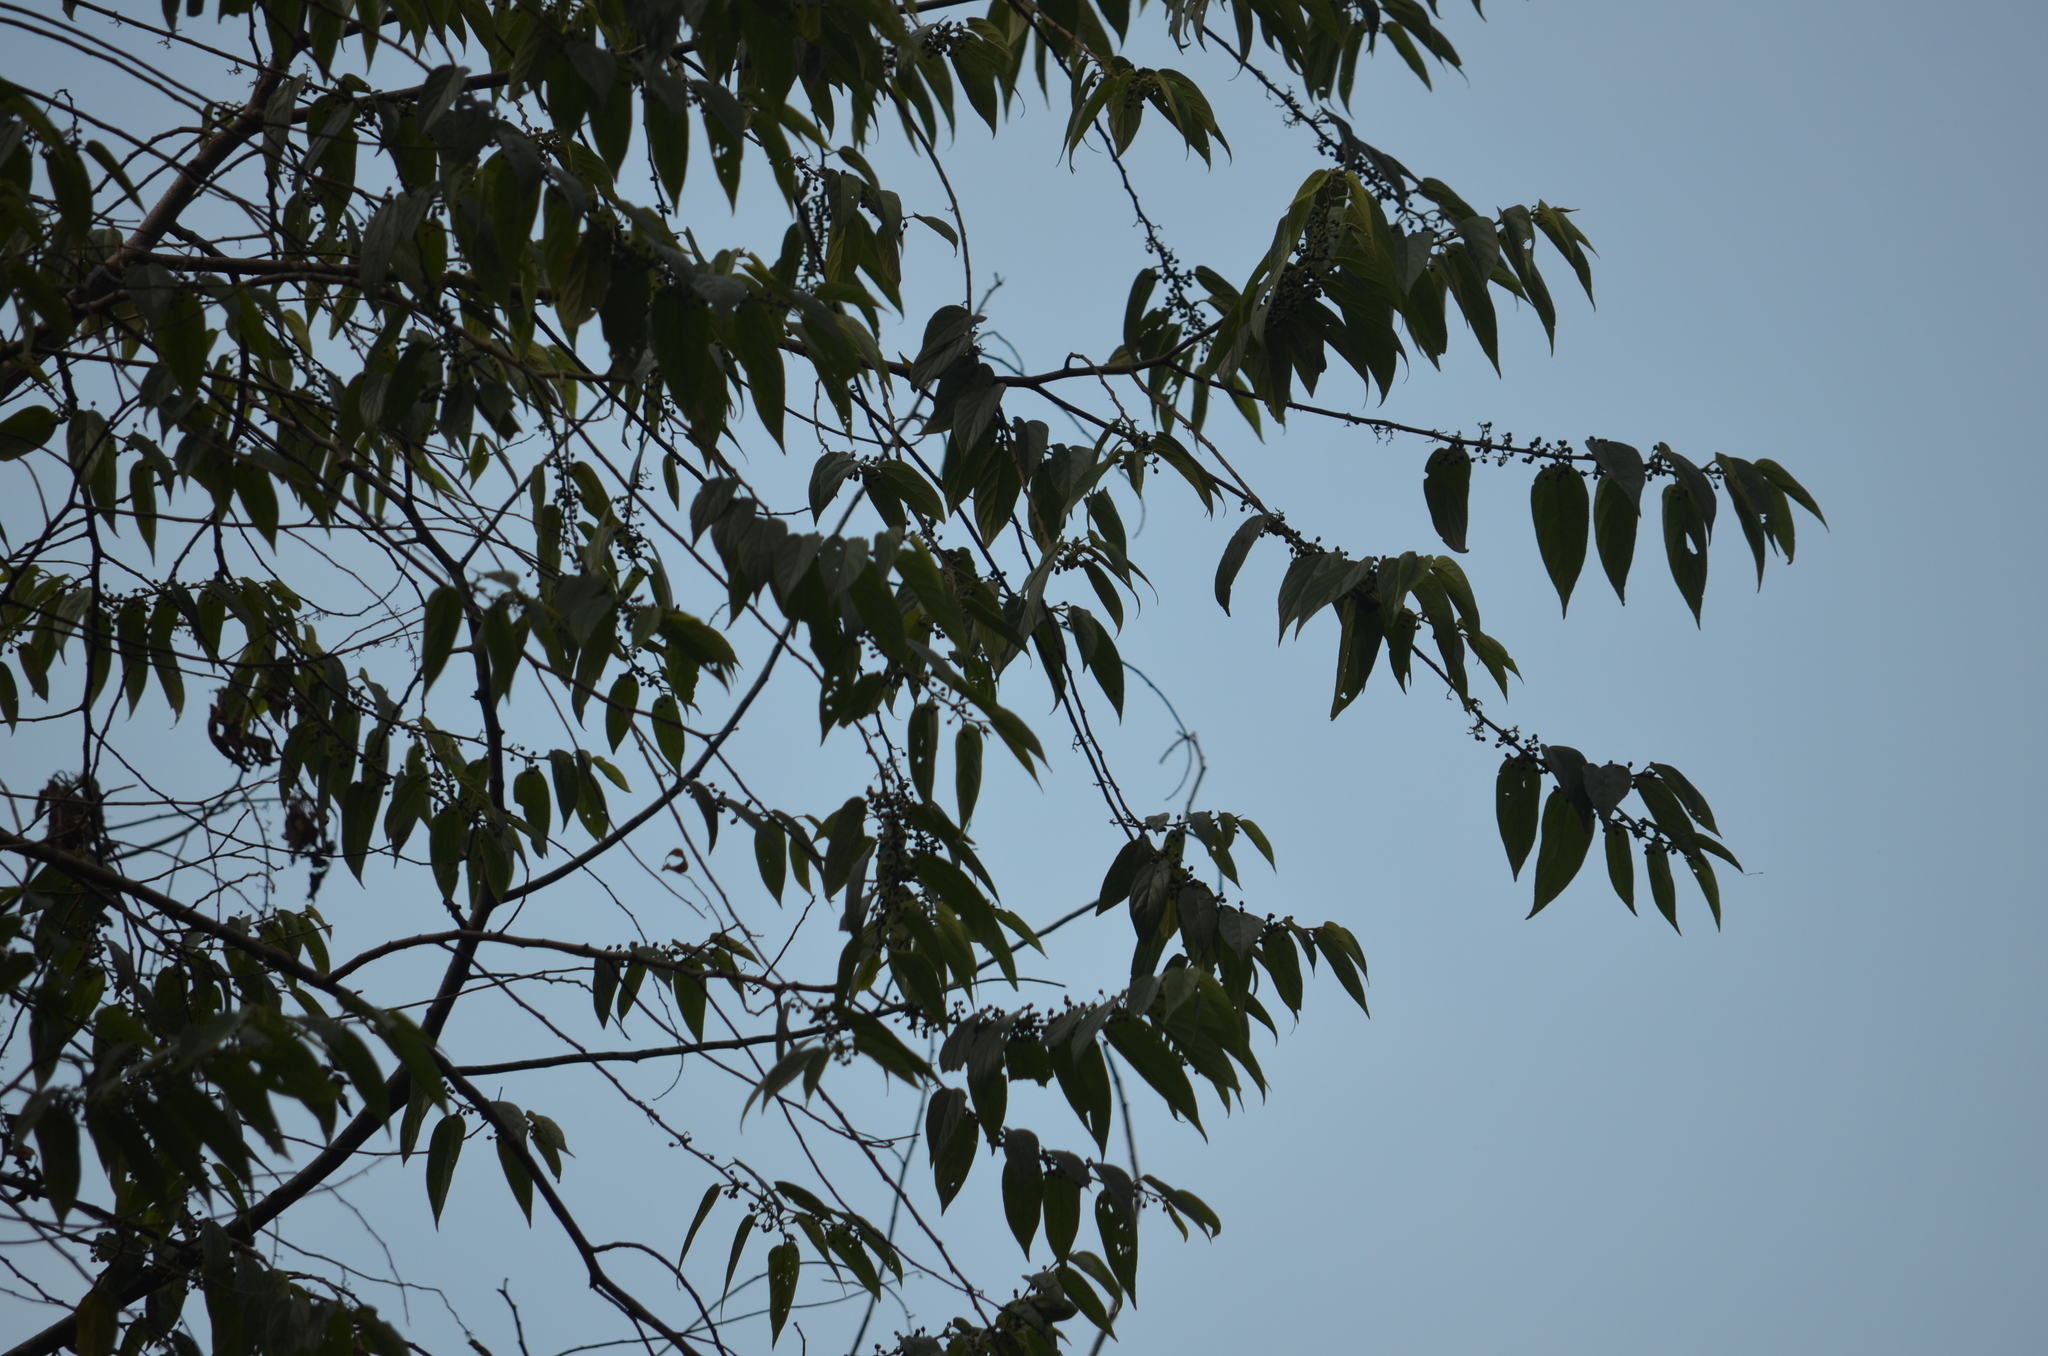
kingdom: Plantae
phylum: Tracheophyta
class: Magnoliopsida
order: Rosales
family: Cannabaceae
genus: Trema
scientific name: Trema micranthum
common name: Jamaican nettletree
